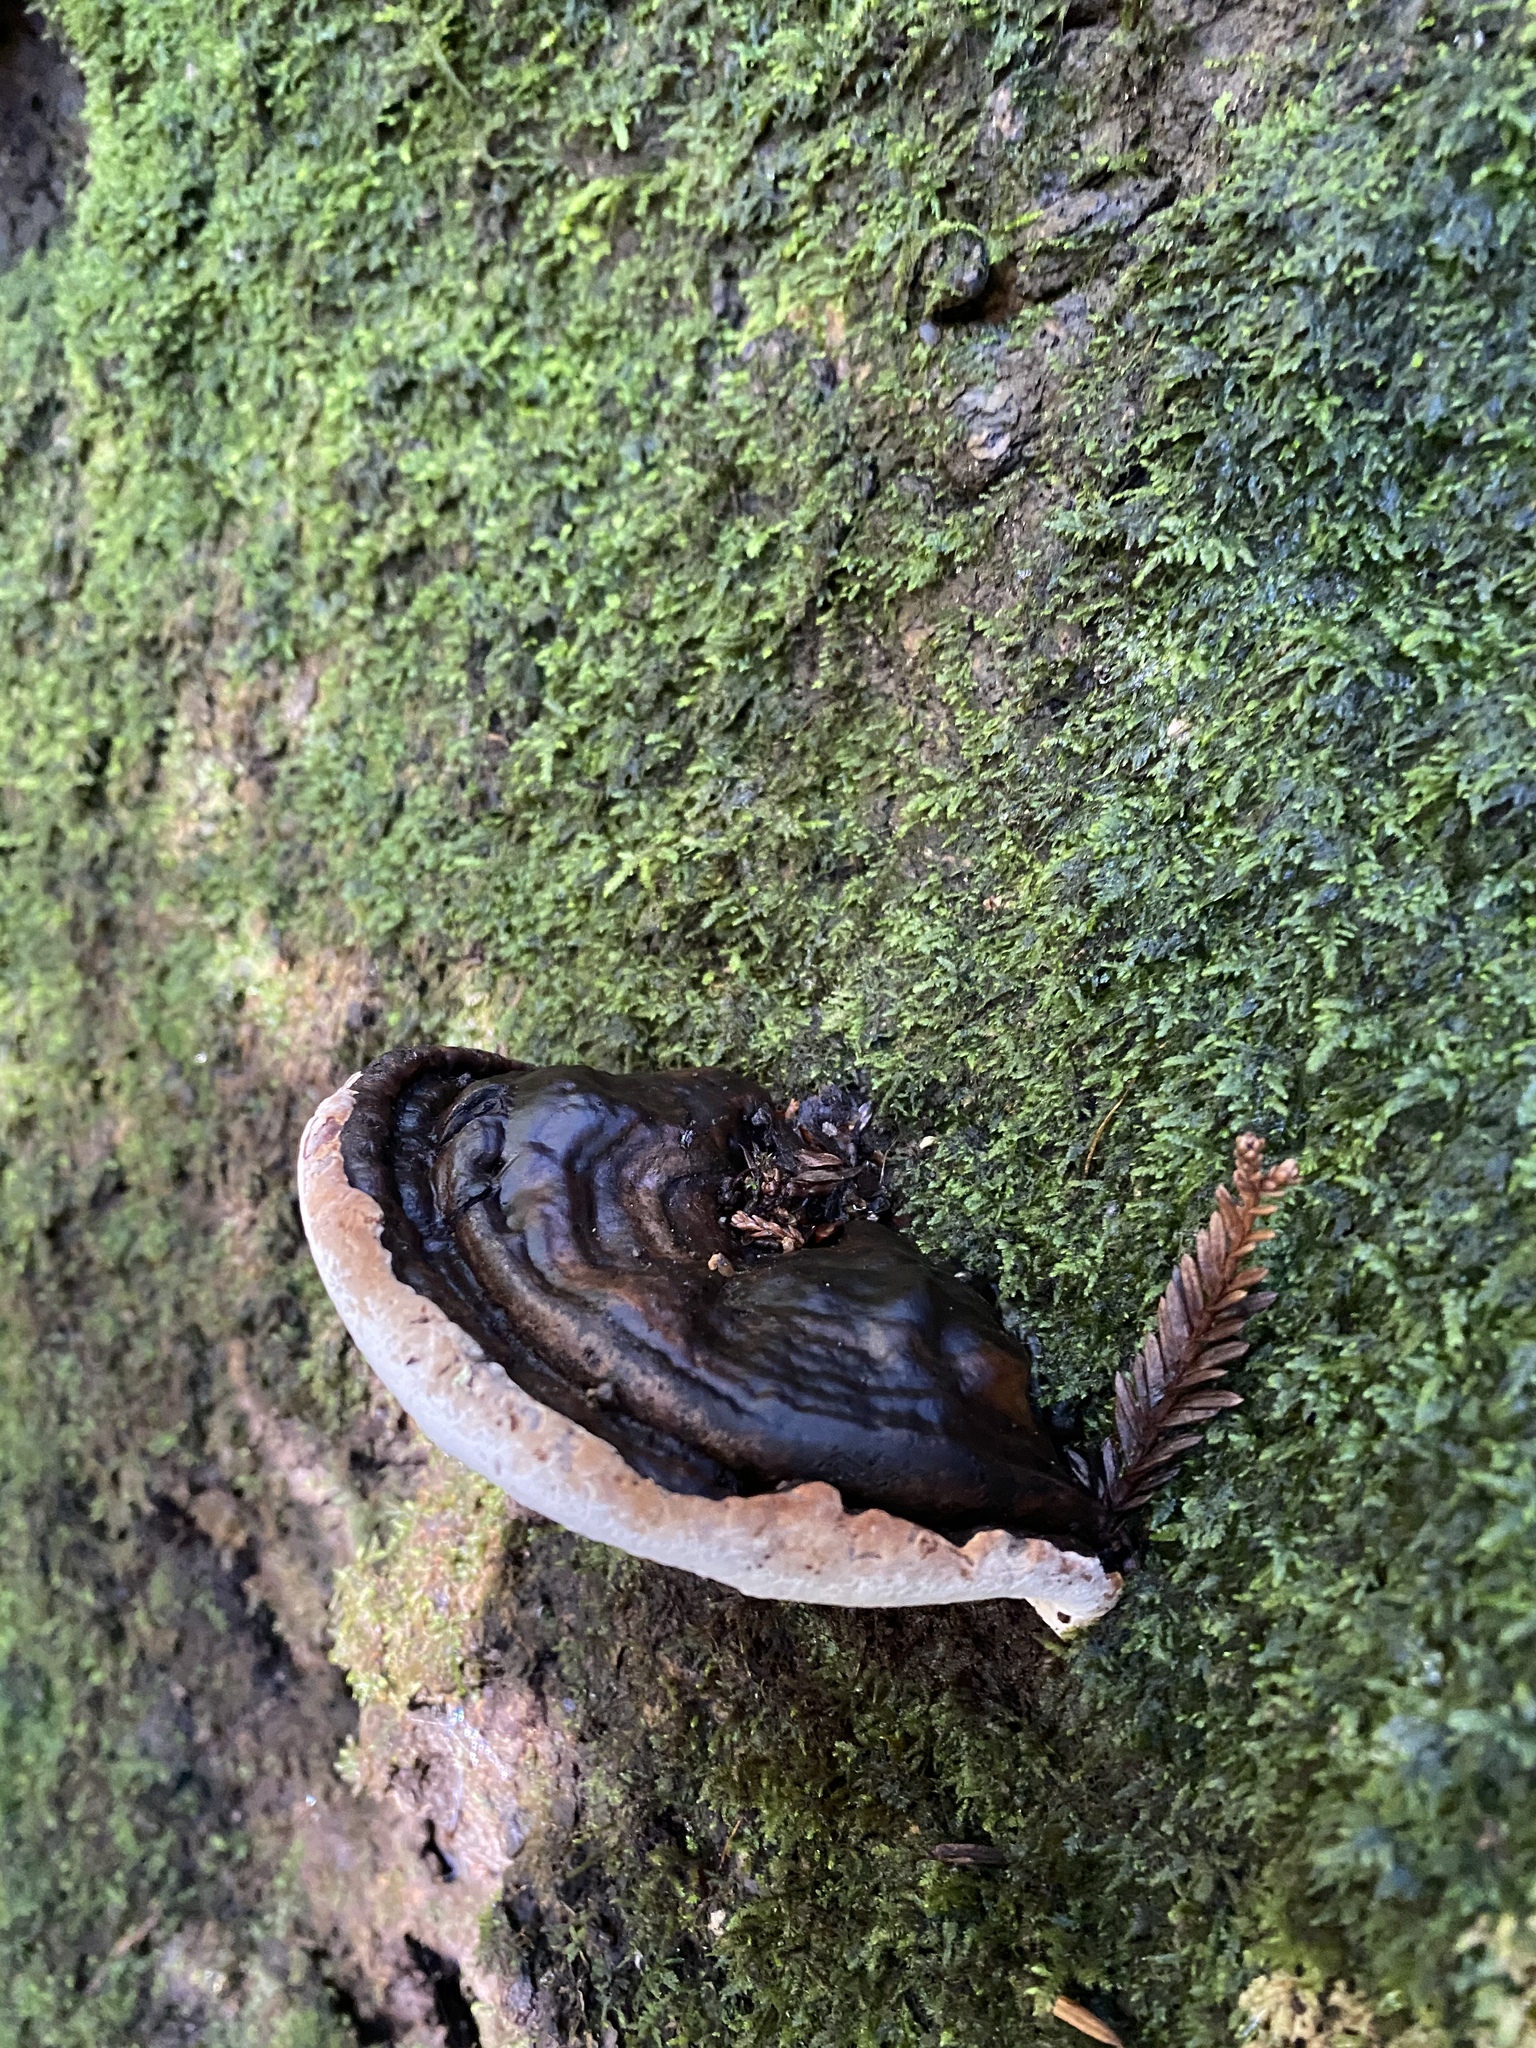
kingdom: Fungi
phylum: Basidiomycota
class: Agaricomycetes
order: Polyporales
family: Polyporaceae
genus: Ganoderma
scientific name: Ganoderma brownii
